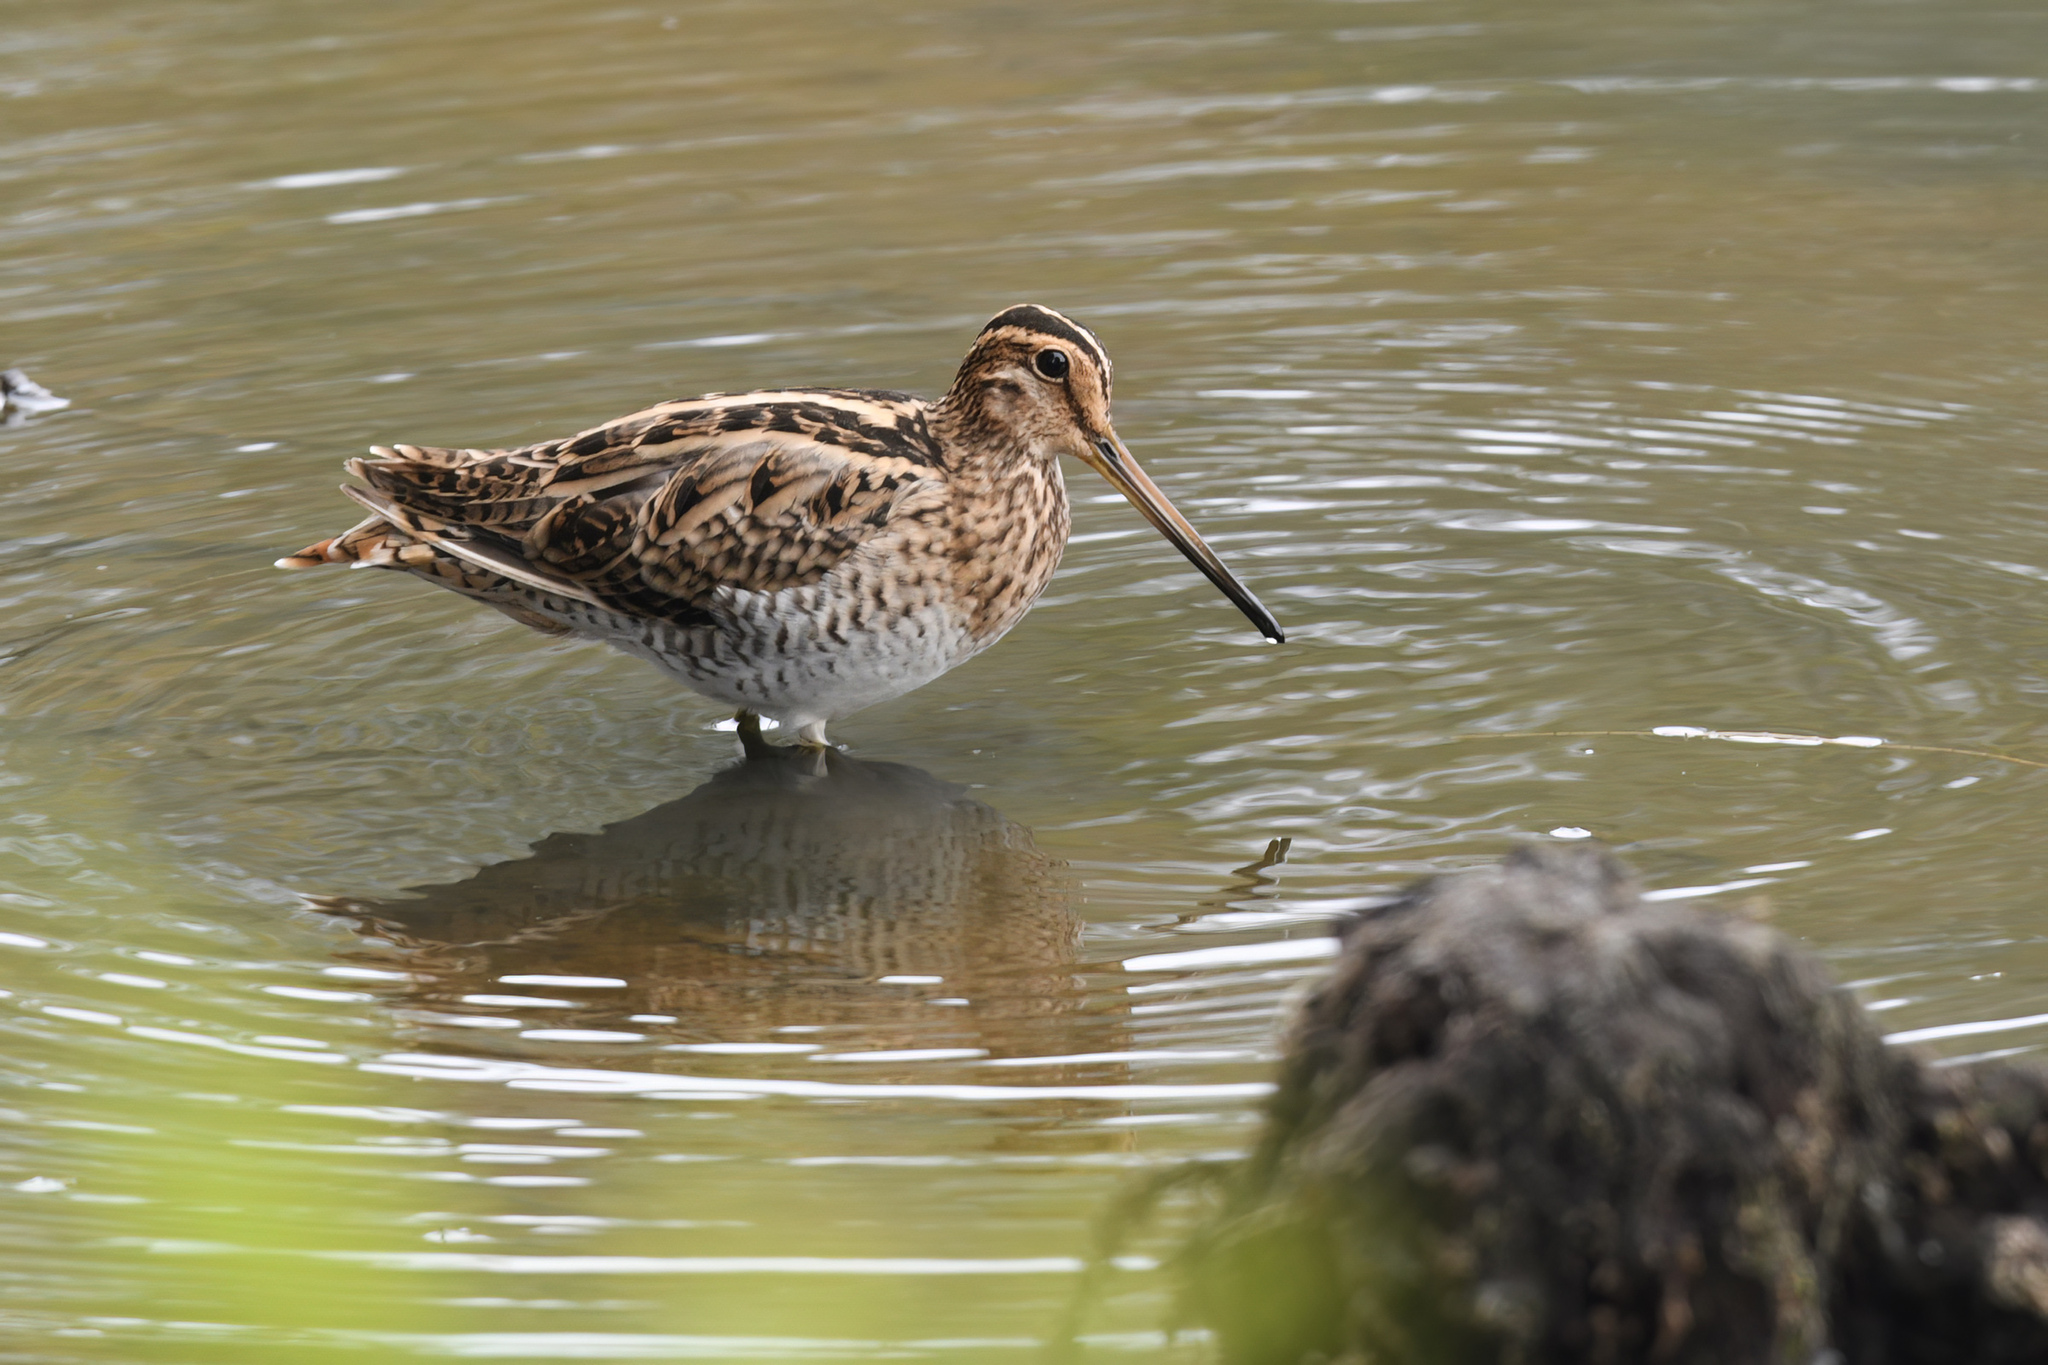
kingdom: Animalia
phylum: Chordata
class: Aves
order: Charadriiformes
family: Scolopacidae
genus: Gallinago
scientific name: Gallinago hardwickii
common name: Latham's snipe
